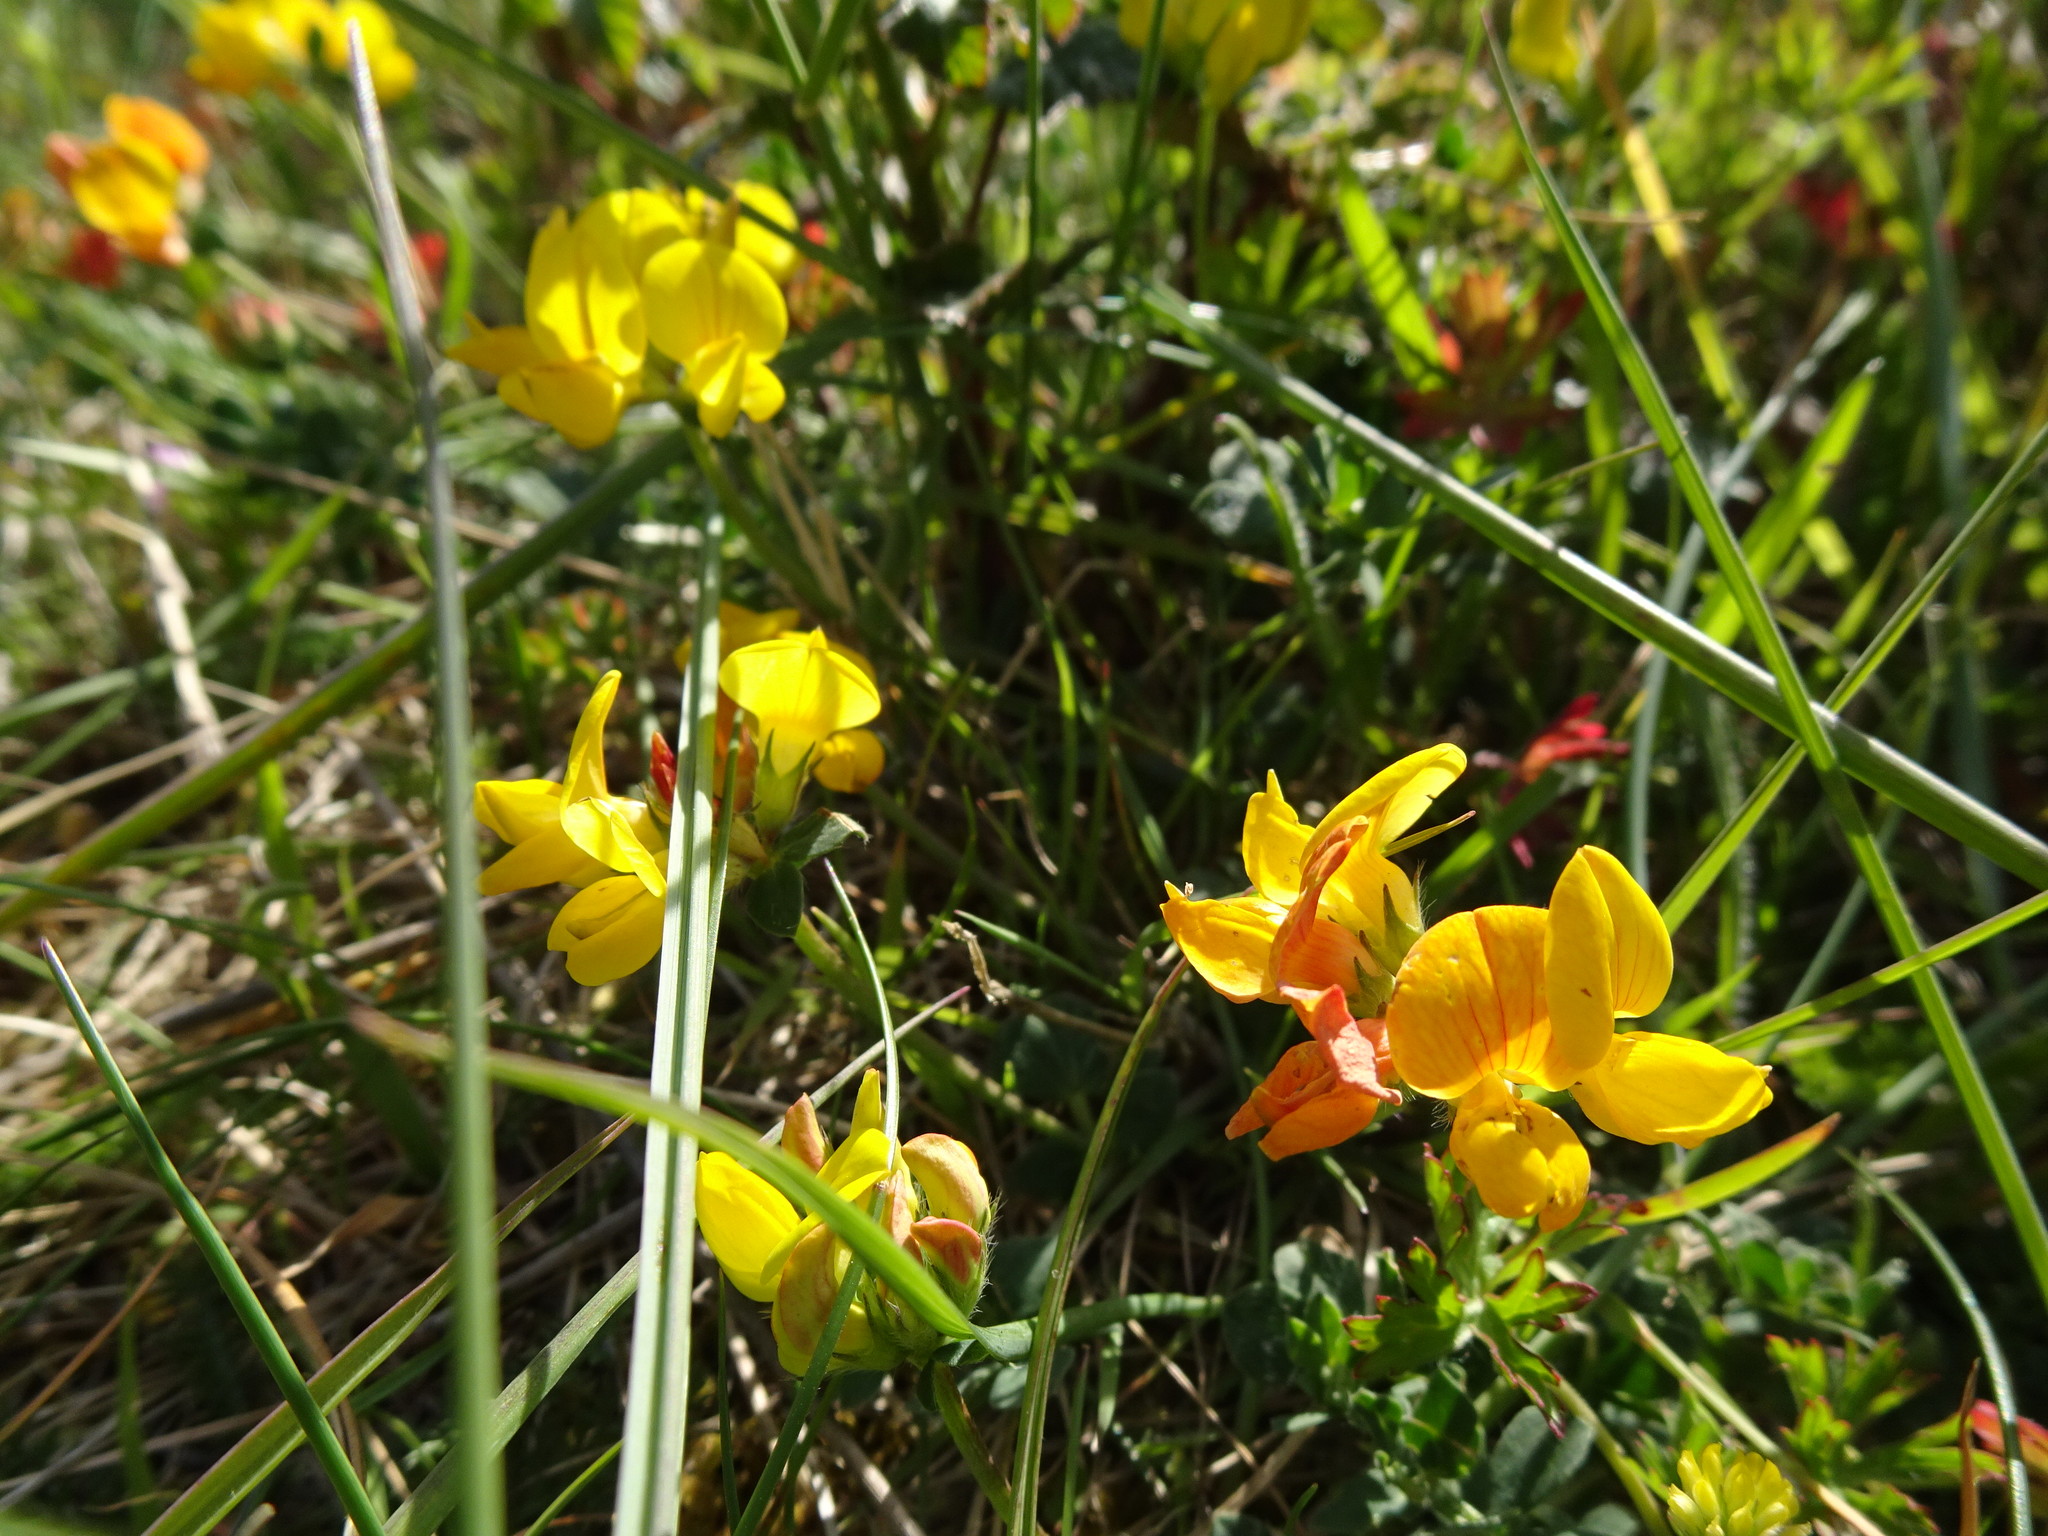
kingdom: Plantae
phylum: Tracheophyta
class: Magnoliopsida
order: Fabales
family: Fabaceae
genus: Lotus
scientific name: Lotus corniculatus
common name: Common bird's-foot-trefoil
